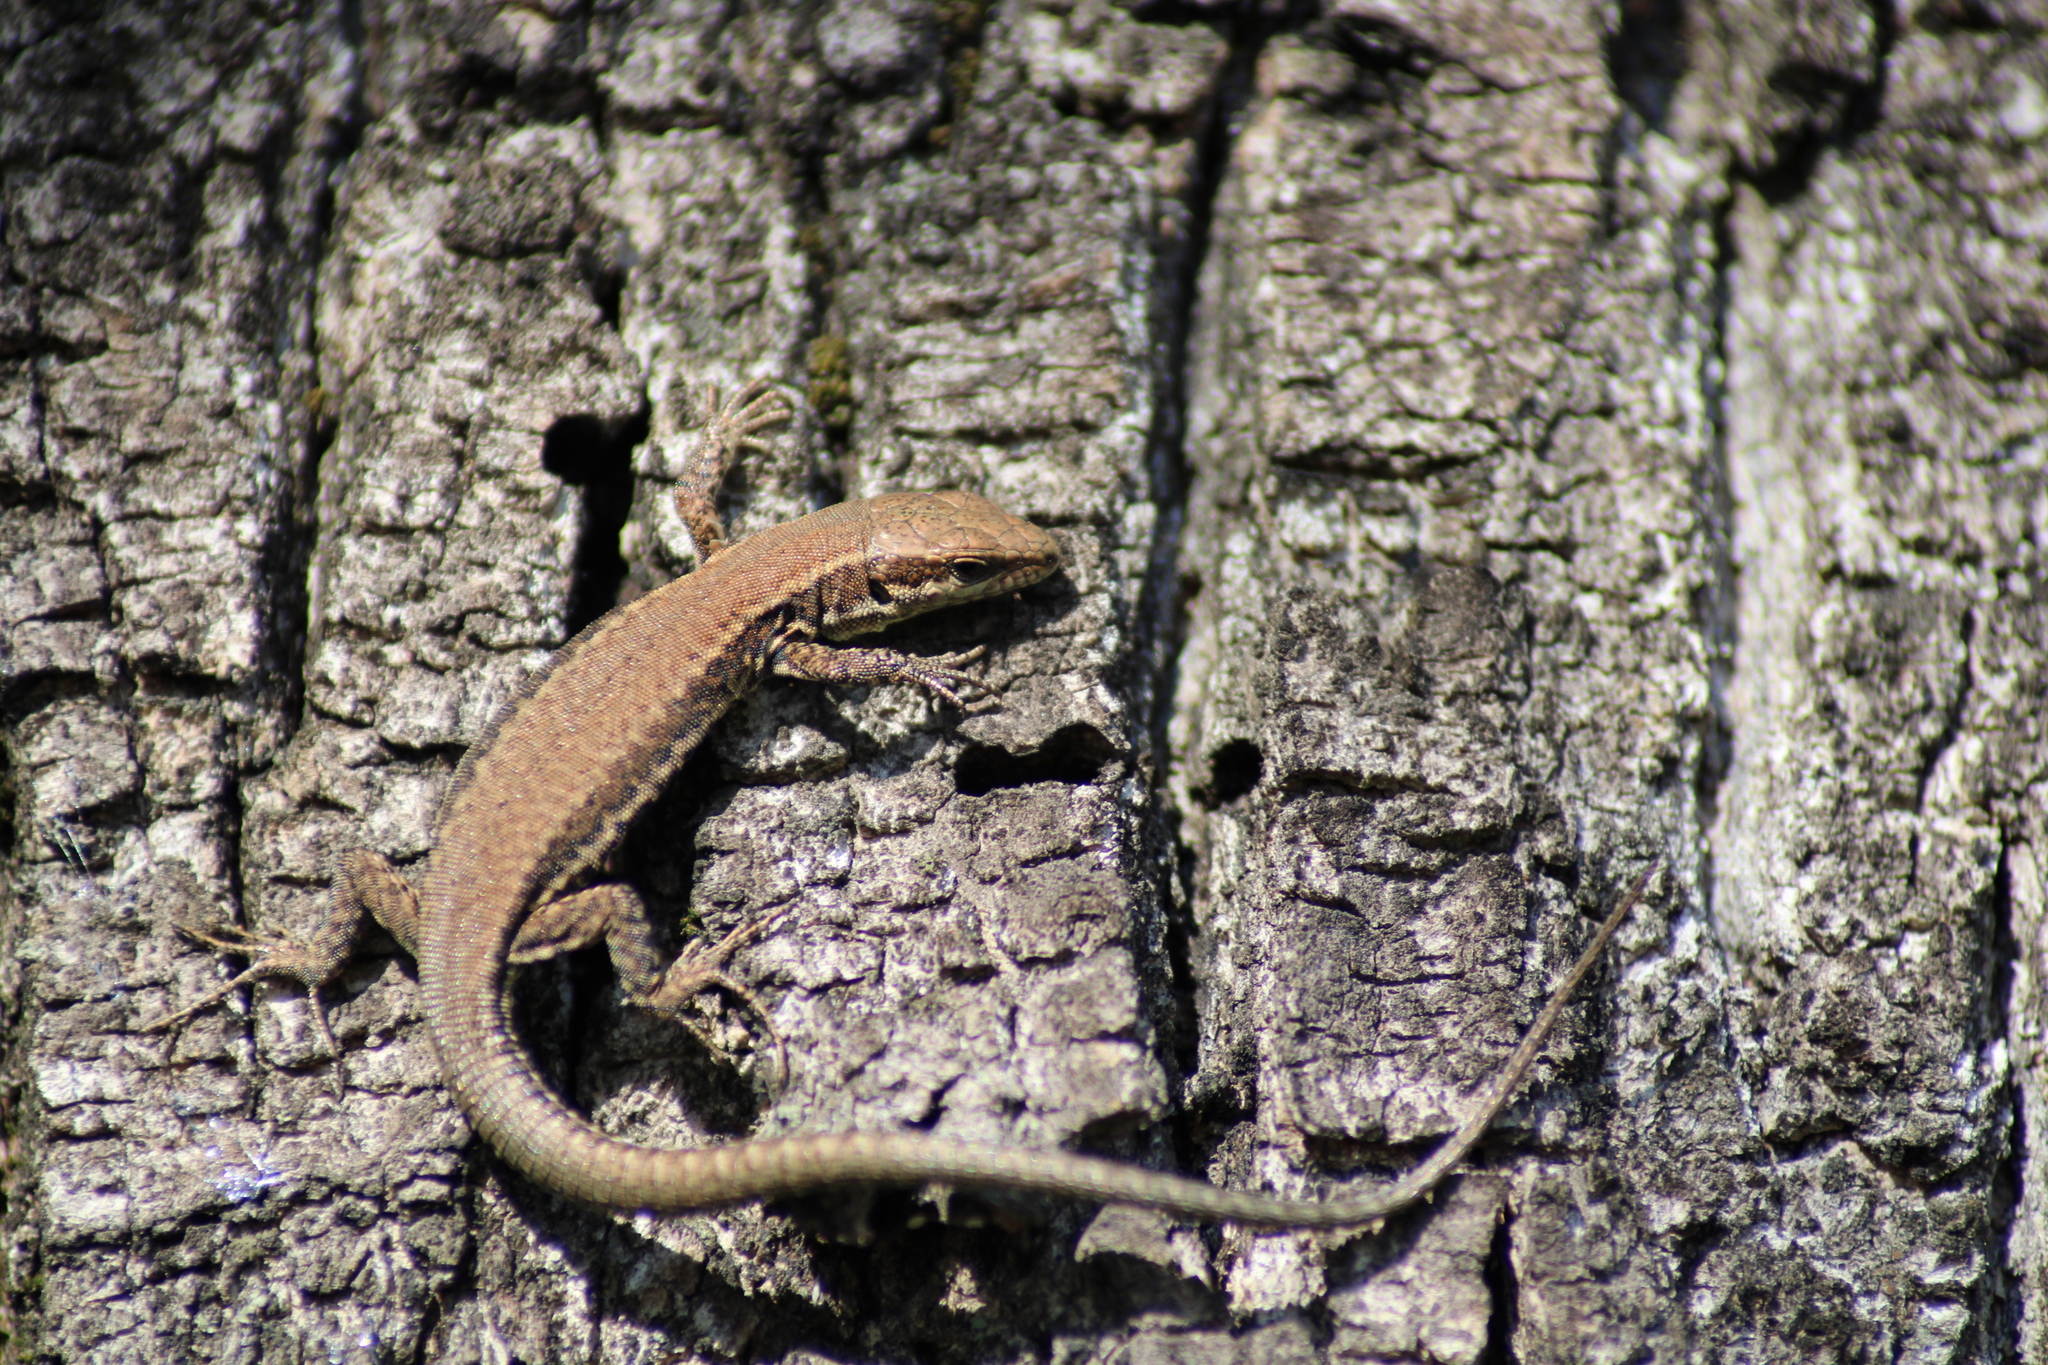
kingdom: Animalia
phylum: Chordata
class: Squamata
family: Lacertidae
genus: Podarcis
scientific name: Podarcis muralis
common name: Common wall lizard
